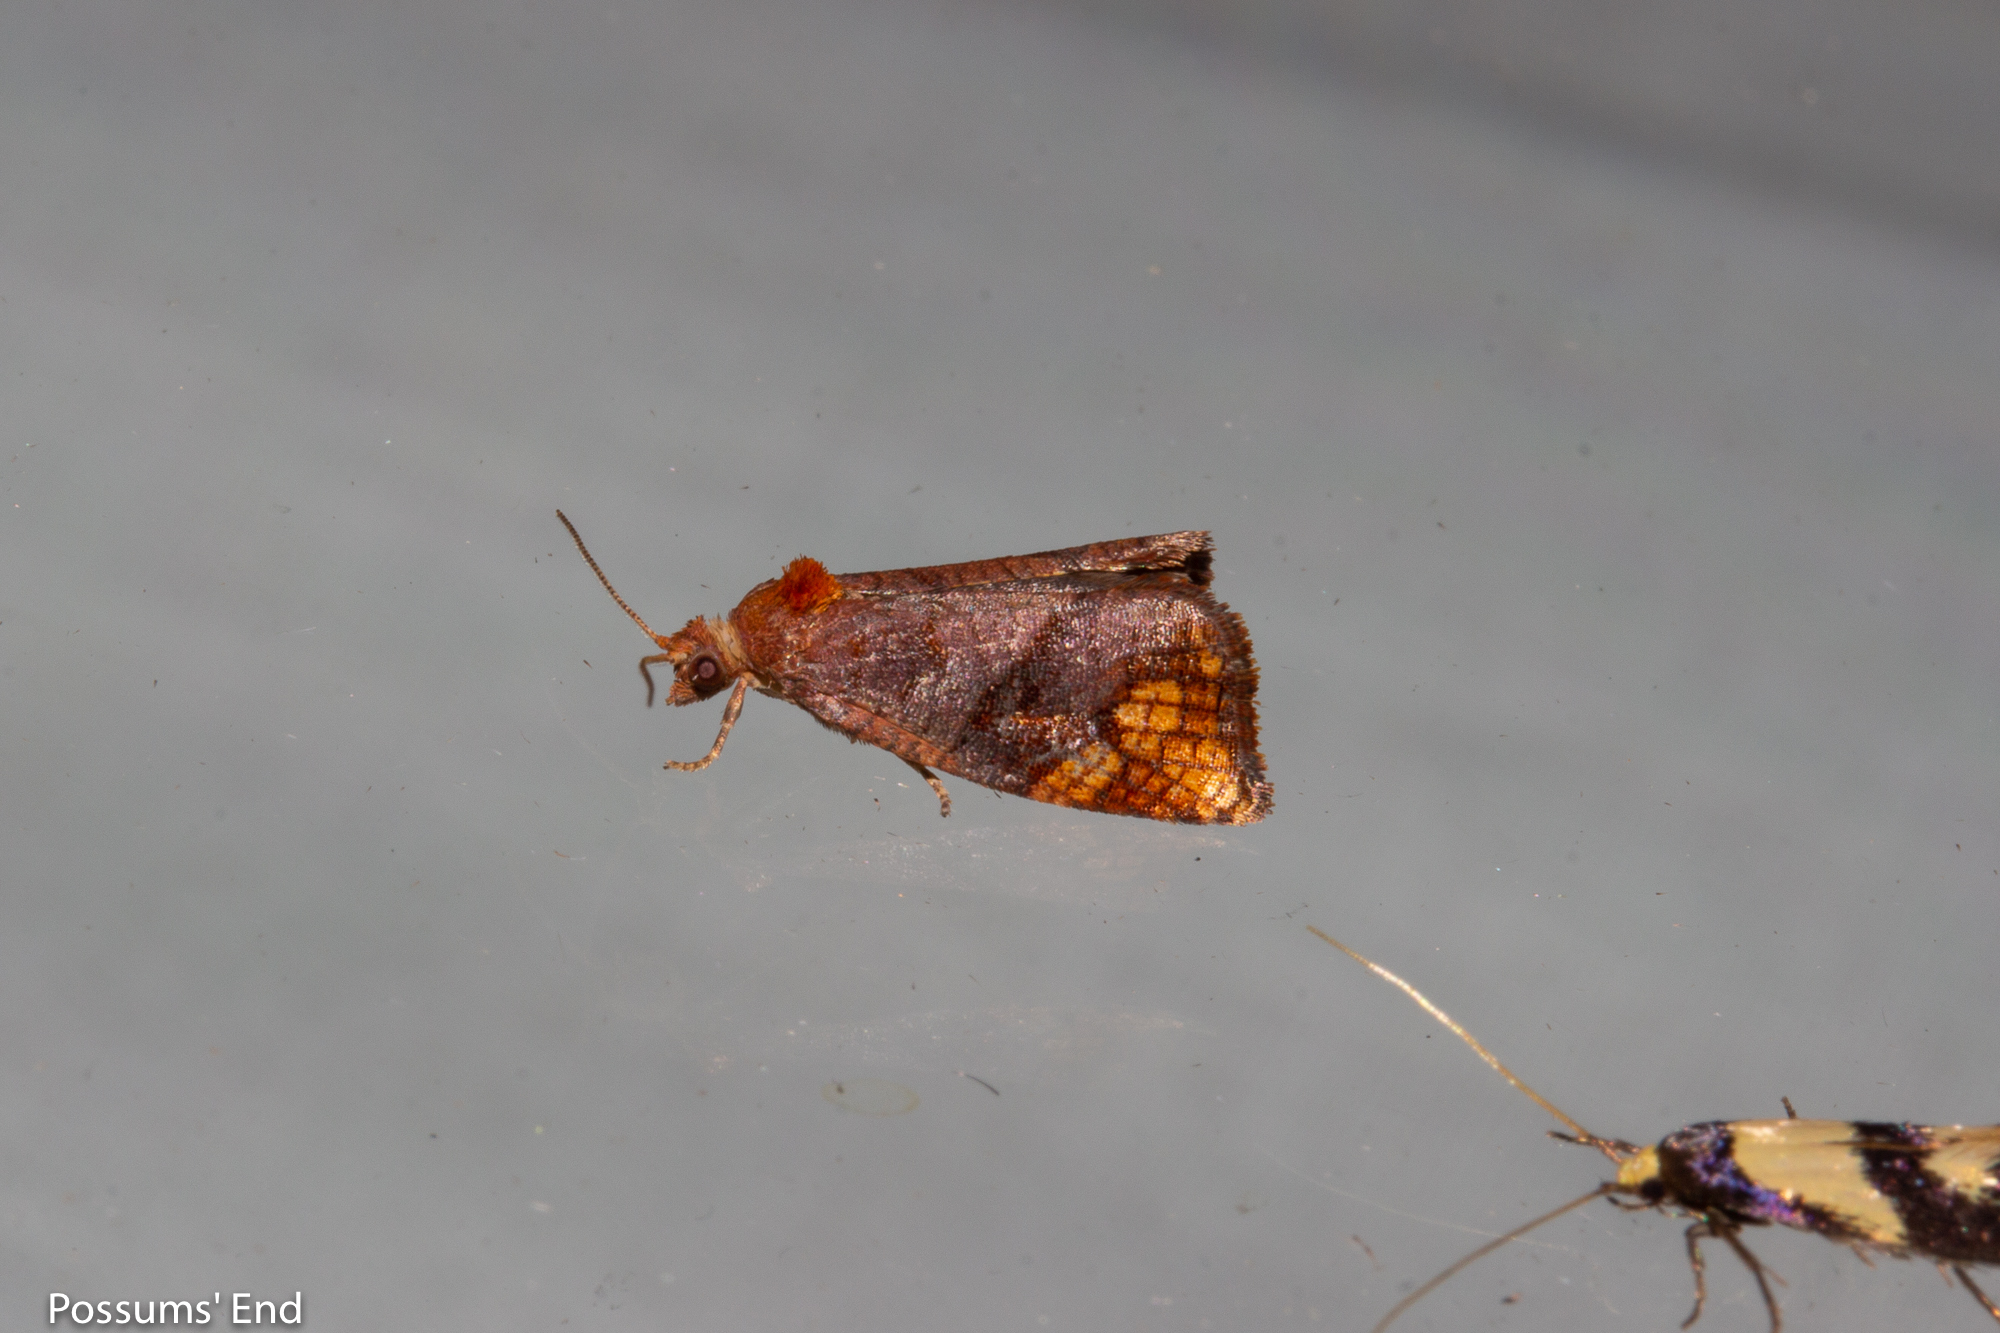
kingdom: Animalia
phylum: Arthropoda
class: Insecta
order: Lepidoptera
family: Tortricidae
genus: Pyrgotis
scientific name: Pyrgotis eudorana
